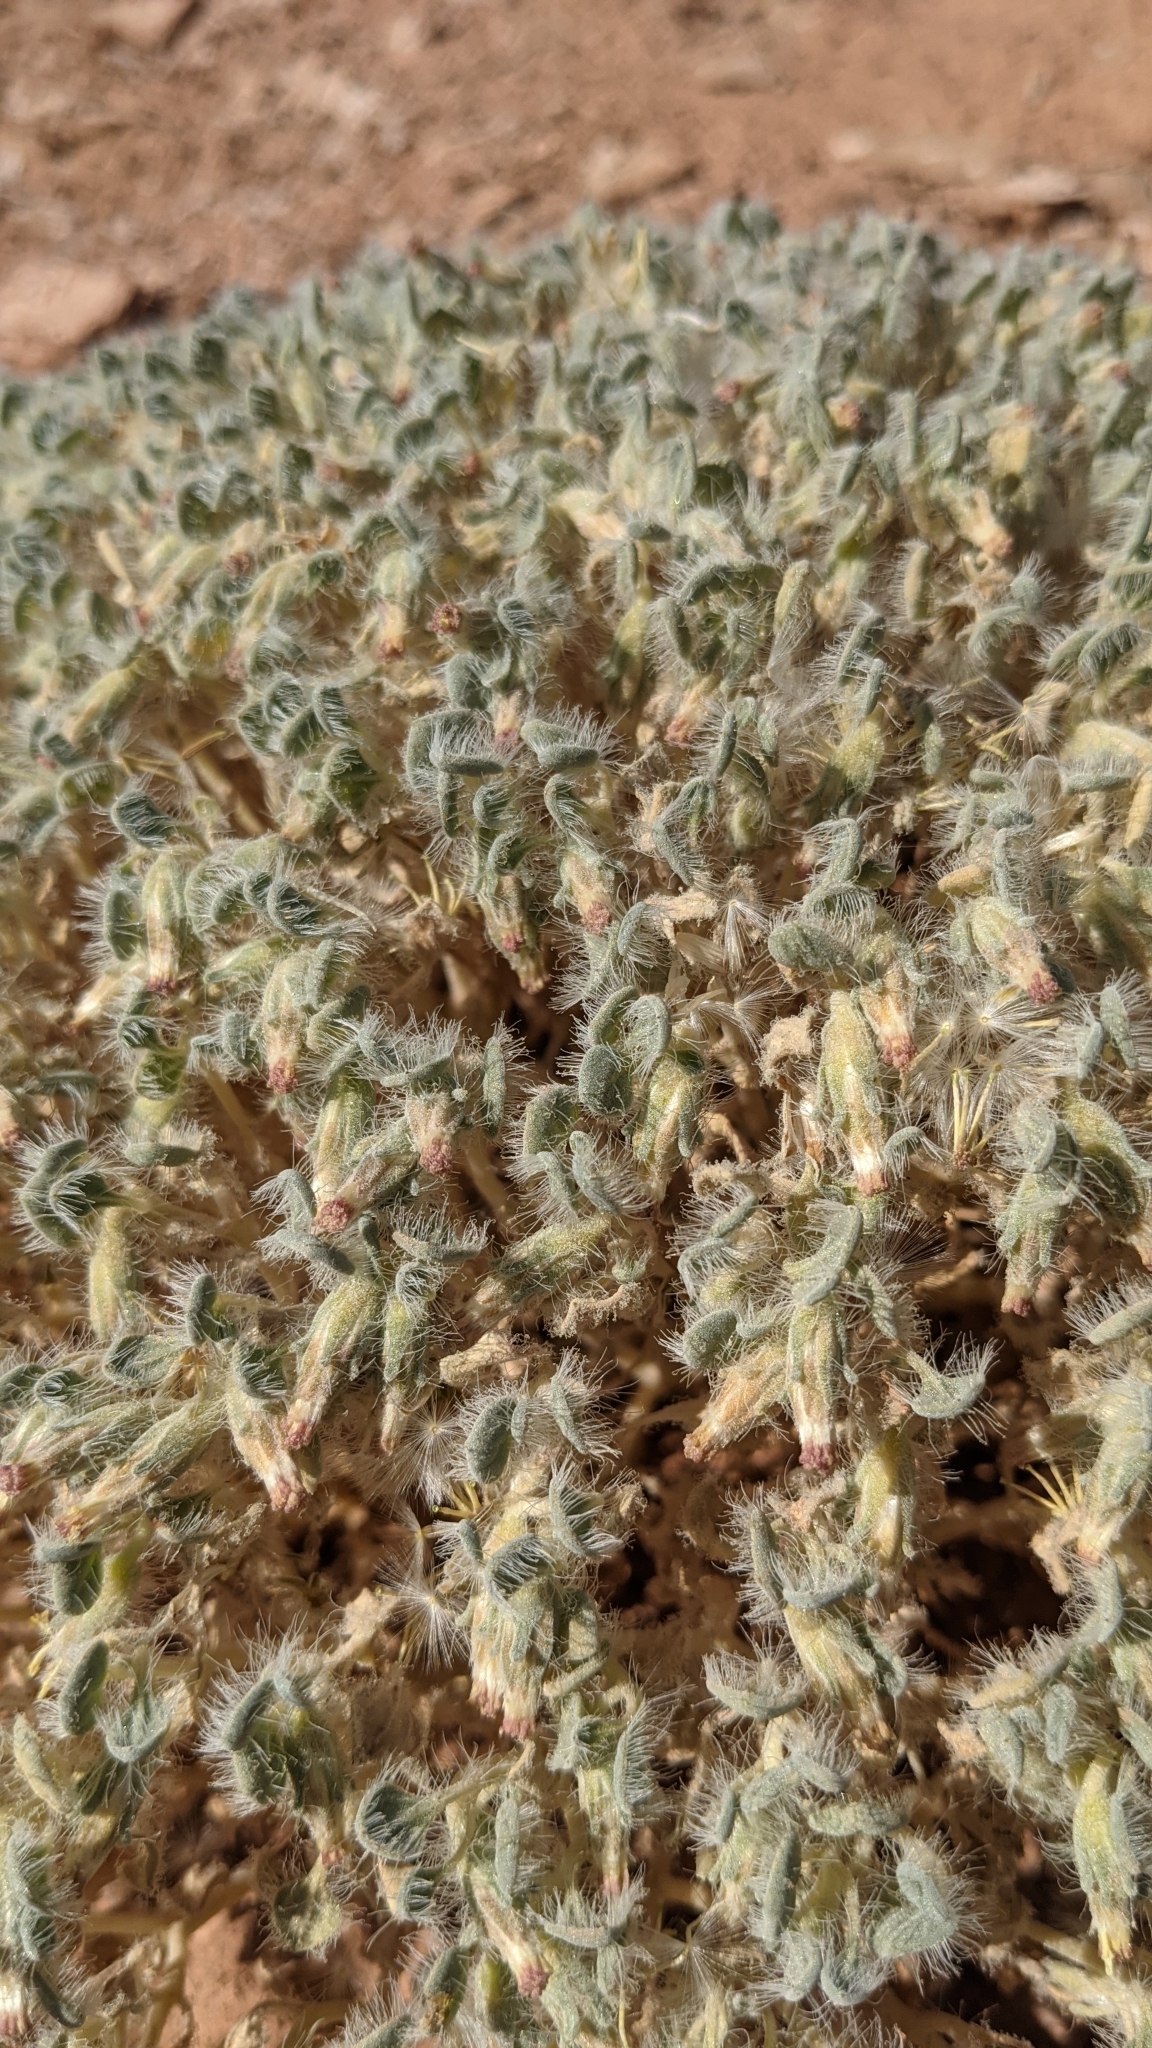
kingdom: Plantae
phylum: Tracheophyta
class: Magnoliopsida
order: Asterales
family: Asteraceae
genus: Psathyrotes
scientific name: Psathyrotes pilifera
